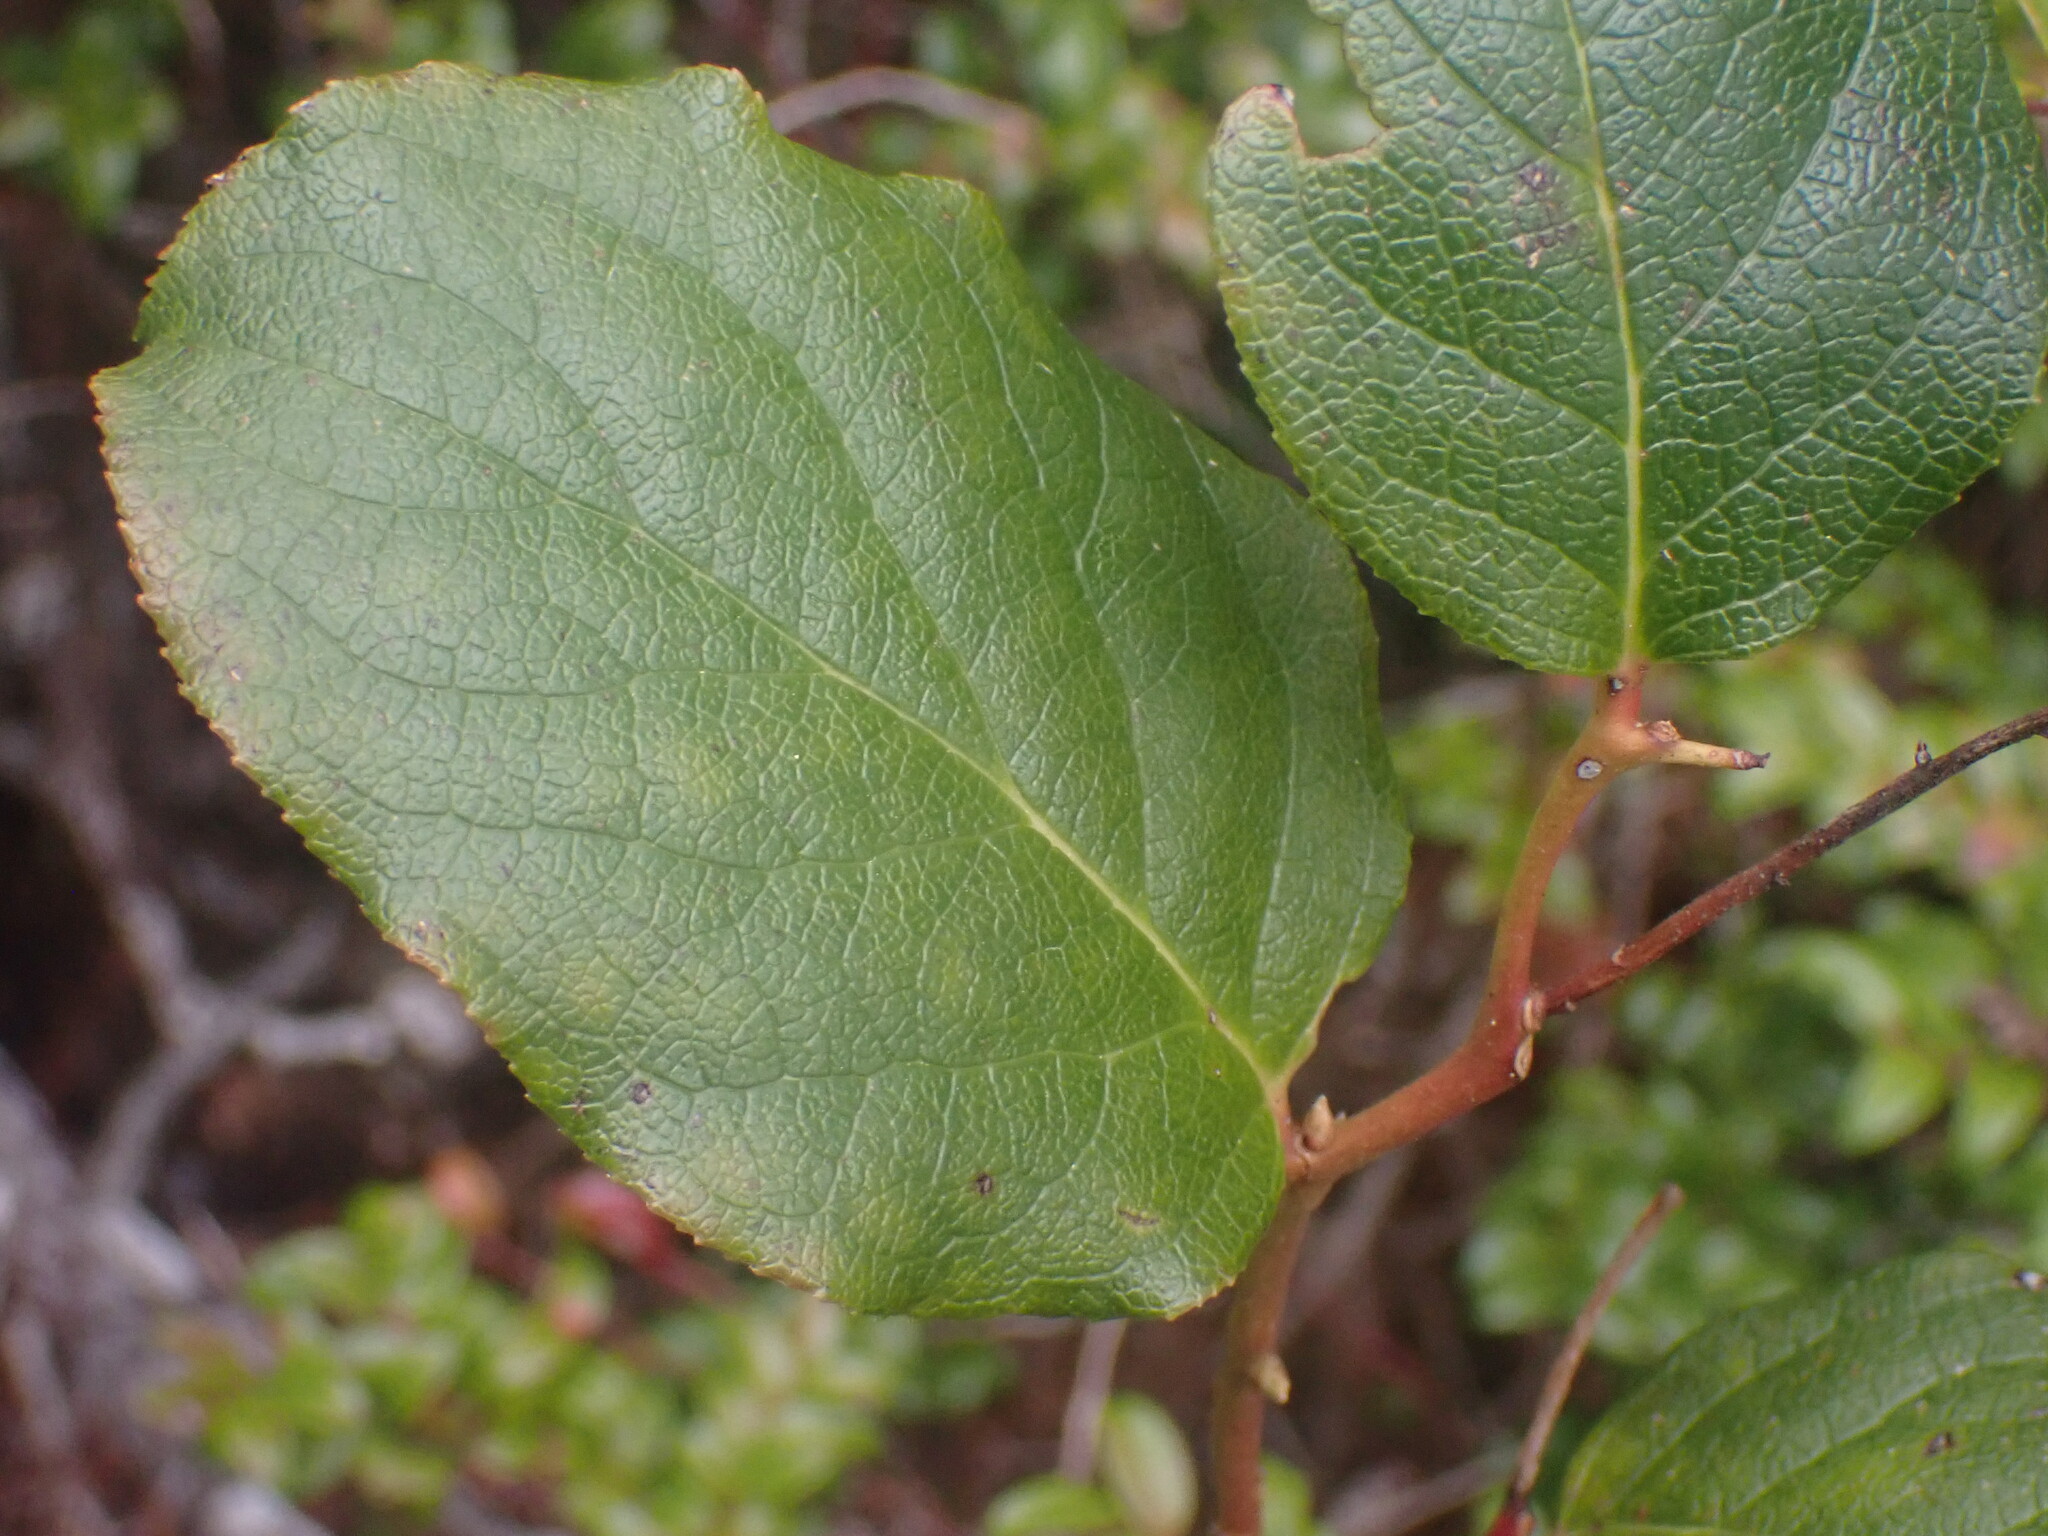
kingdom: Plantae
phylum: Tracheophyta
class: Magnoliopsida
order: Ericales
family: Ericaceae
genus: Gaultheria
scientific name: Gaultheria shallon
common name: Shallon
